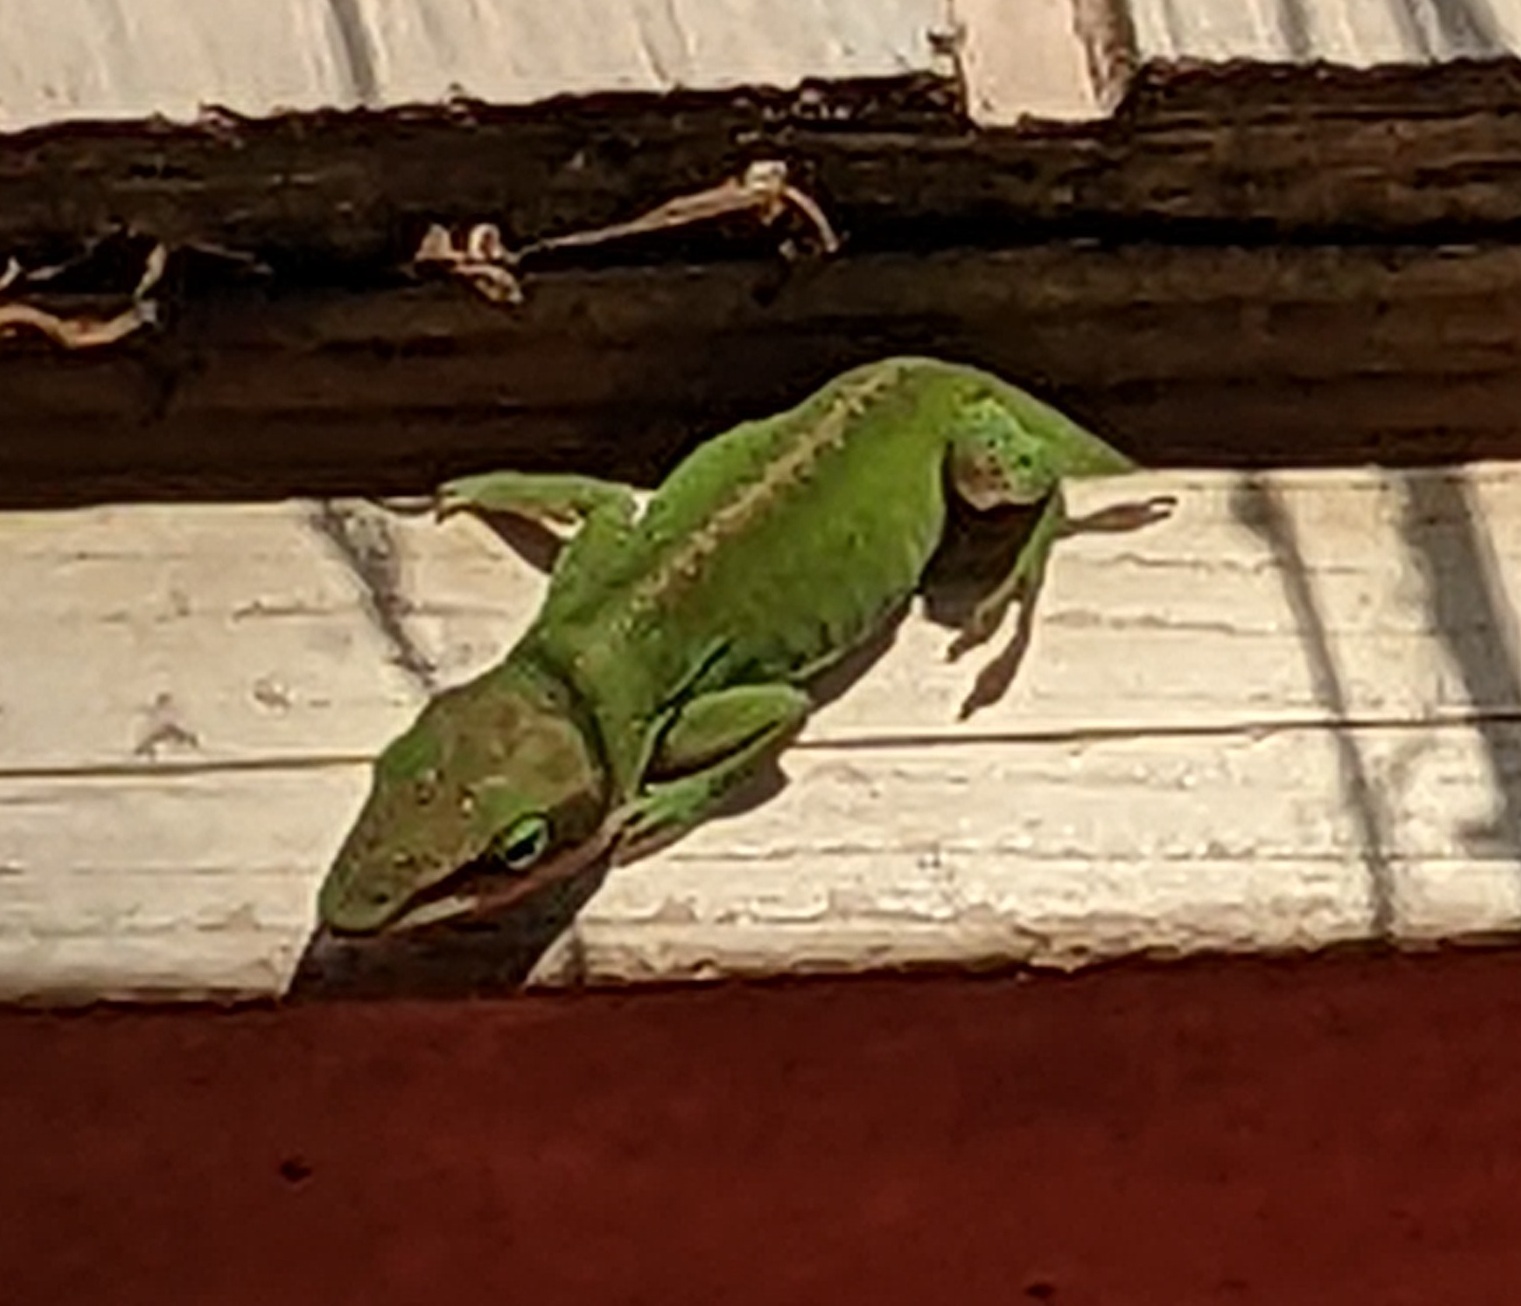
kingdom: Animalia
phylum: Chordata
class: Squamata
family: Dactyloidae
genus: Anolis
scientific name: Anolis carolinensis
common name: Green anole
